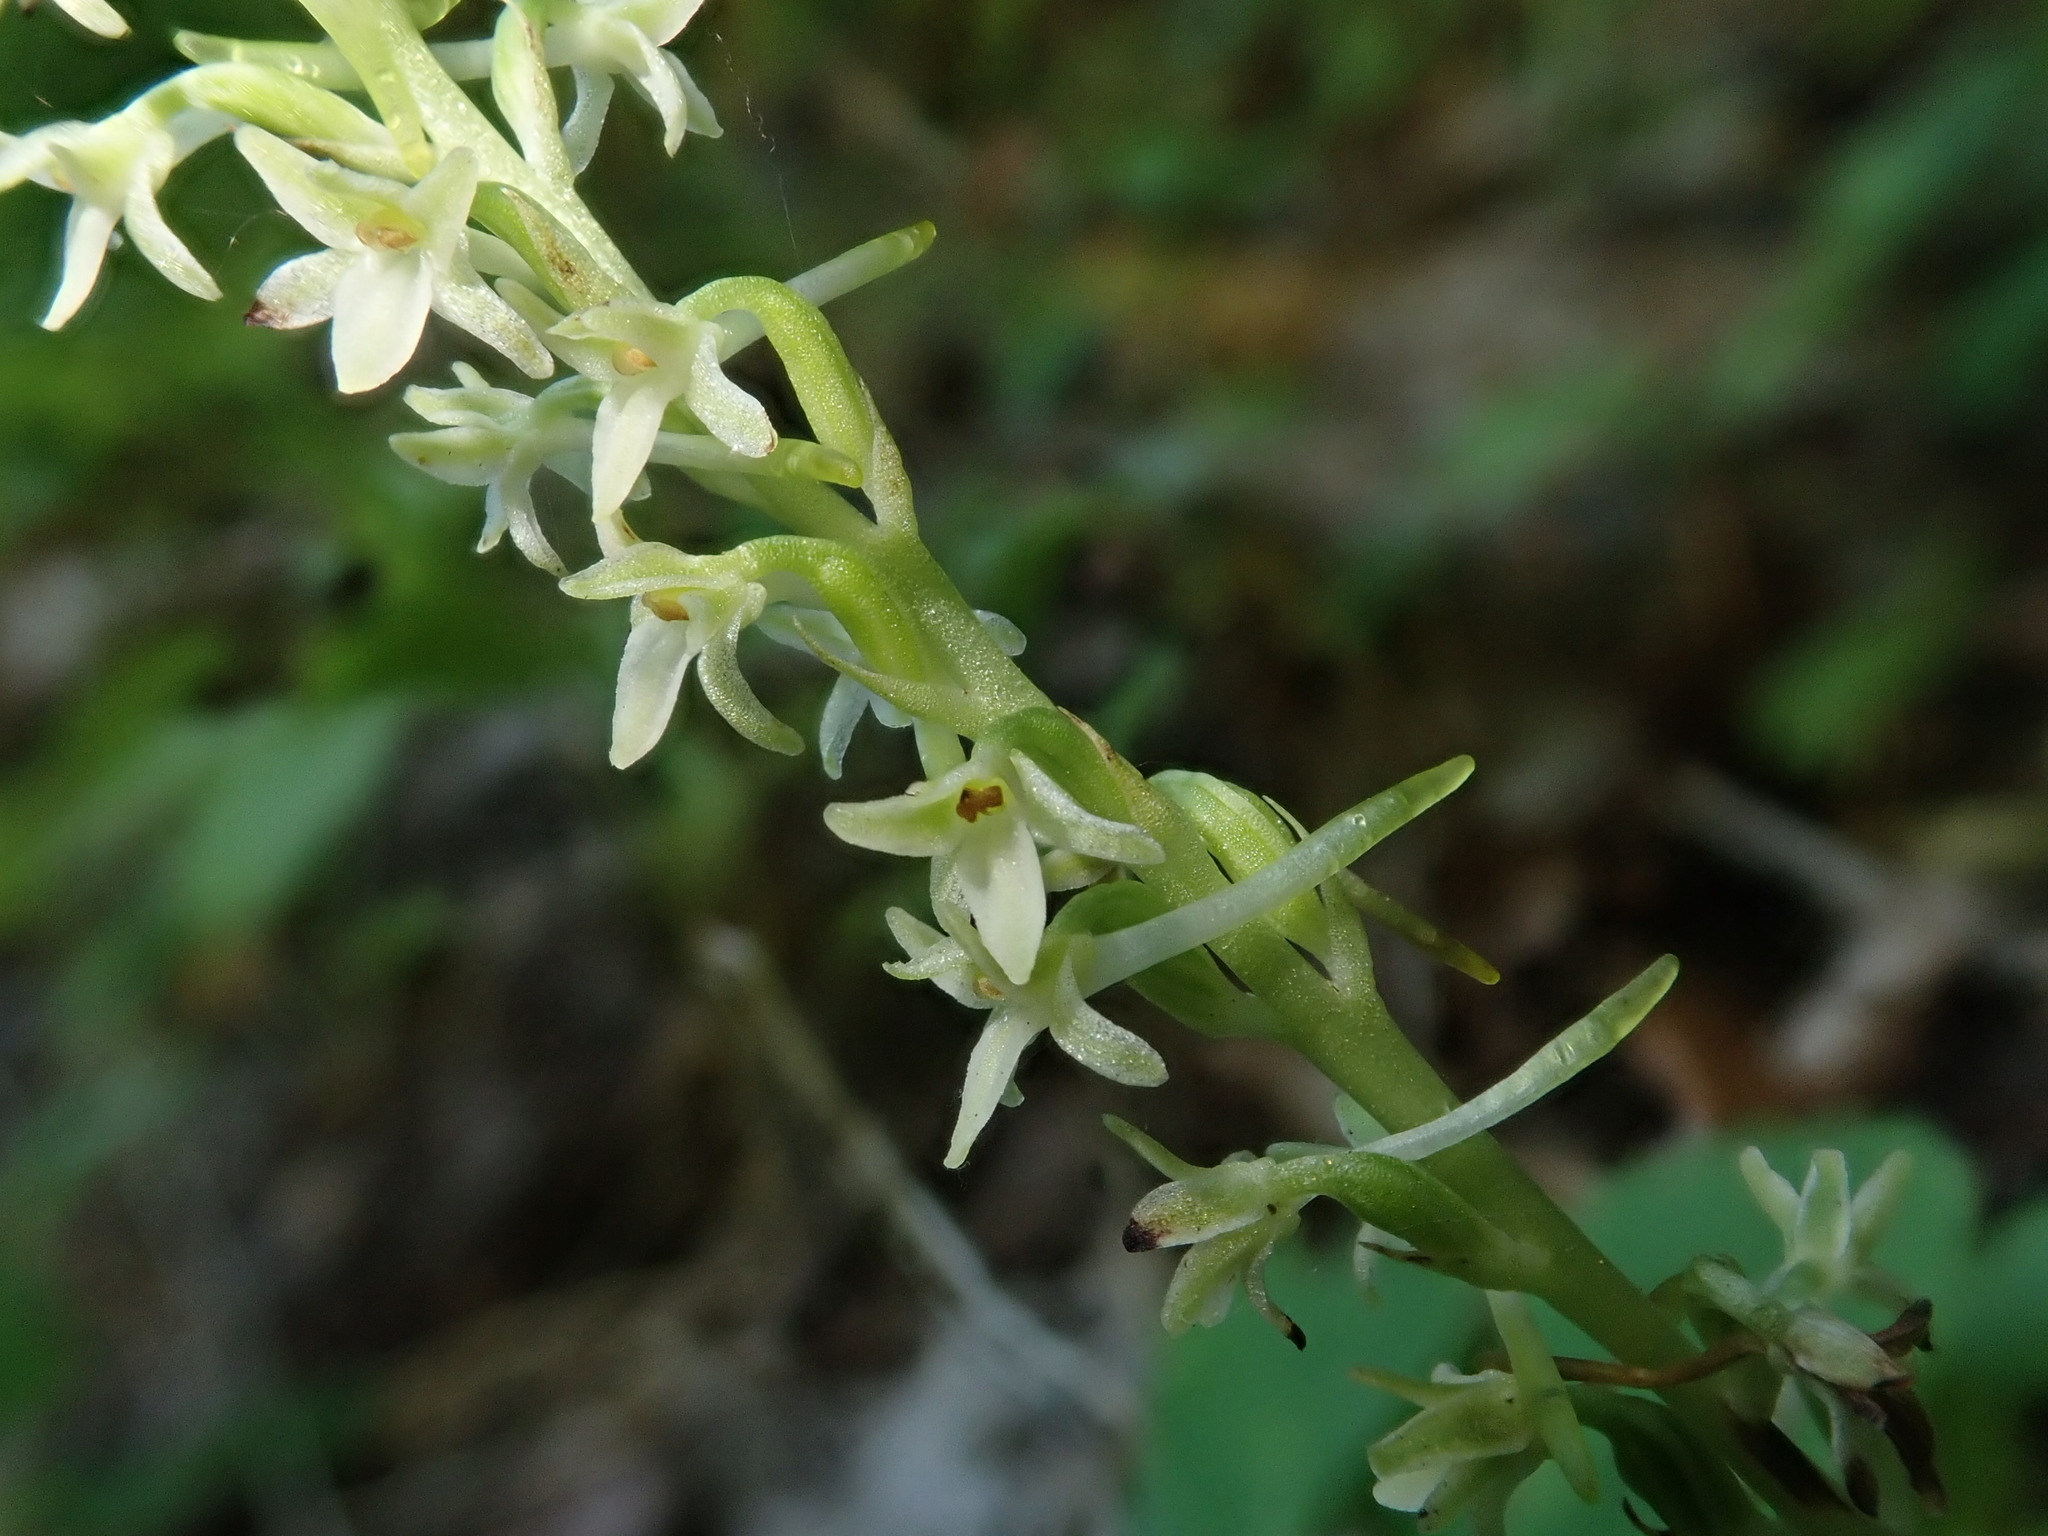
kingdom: Plantae
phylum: Tracheophyta
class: Liliopsida
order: Asparagales
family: Orchidaceae
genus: Platanthera
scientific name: Platanthera transversa
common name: Royal rein orchid
